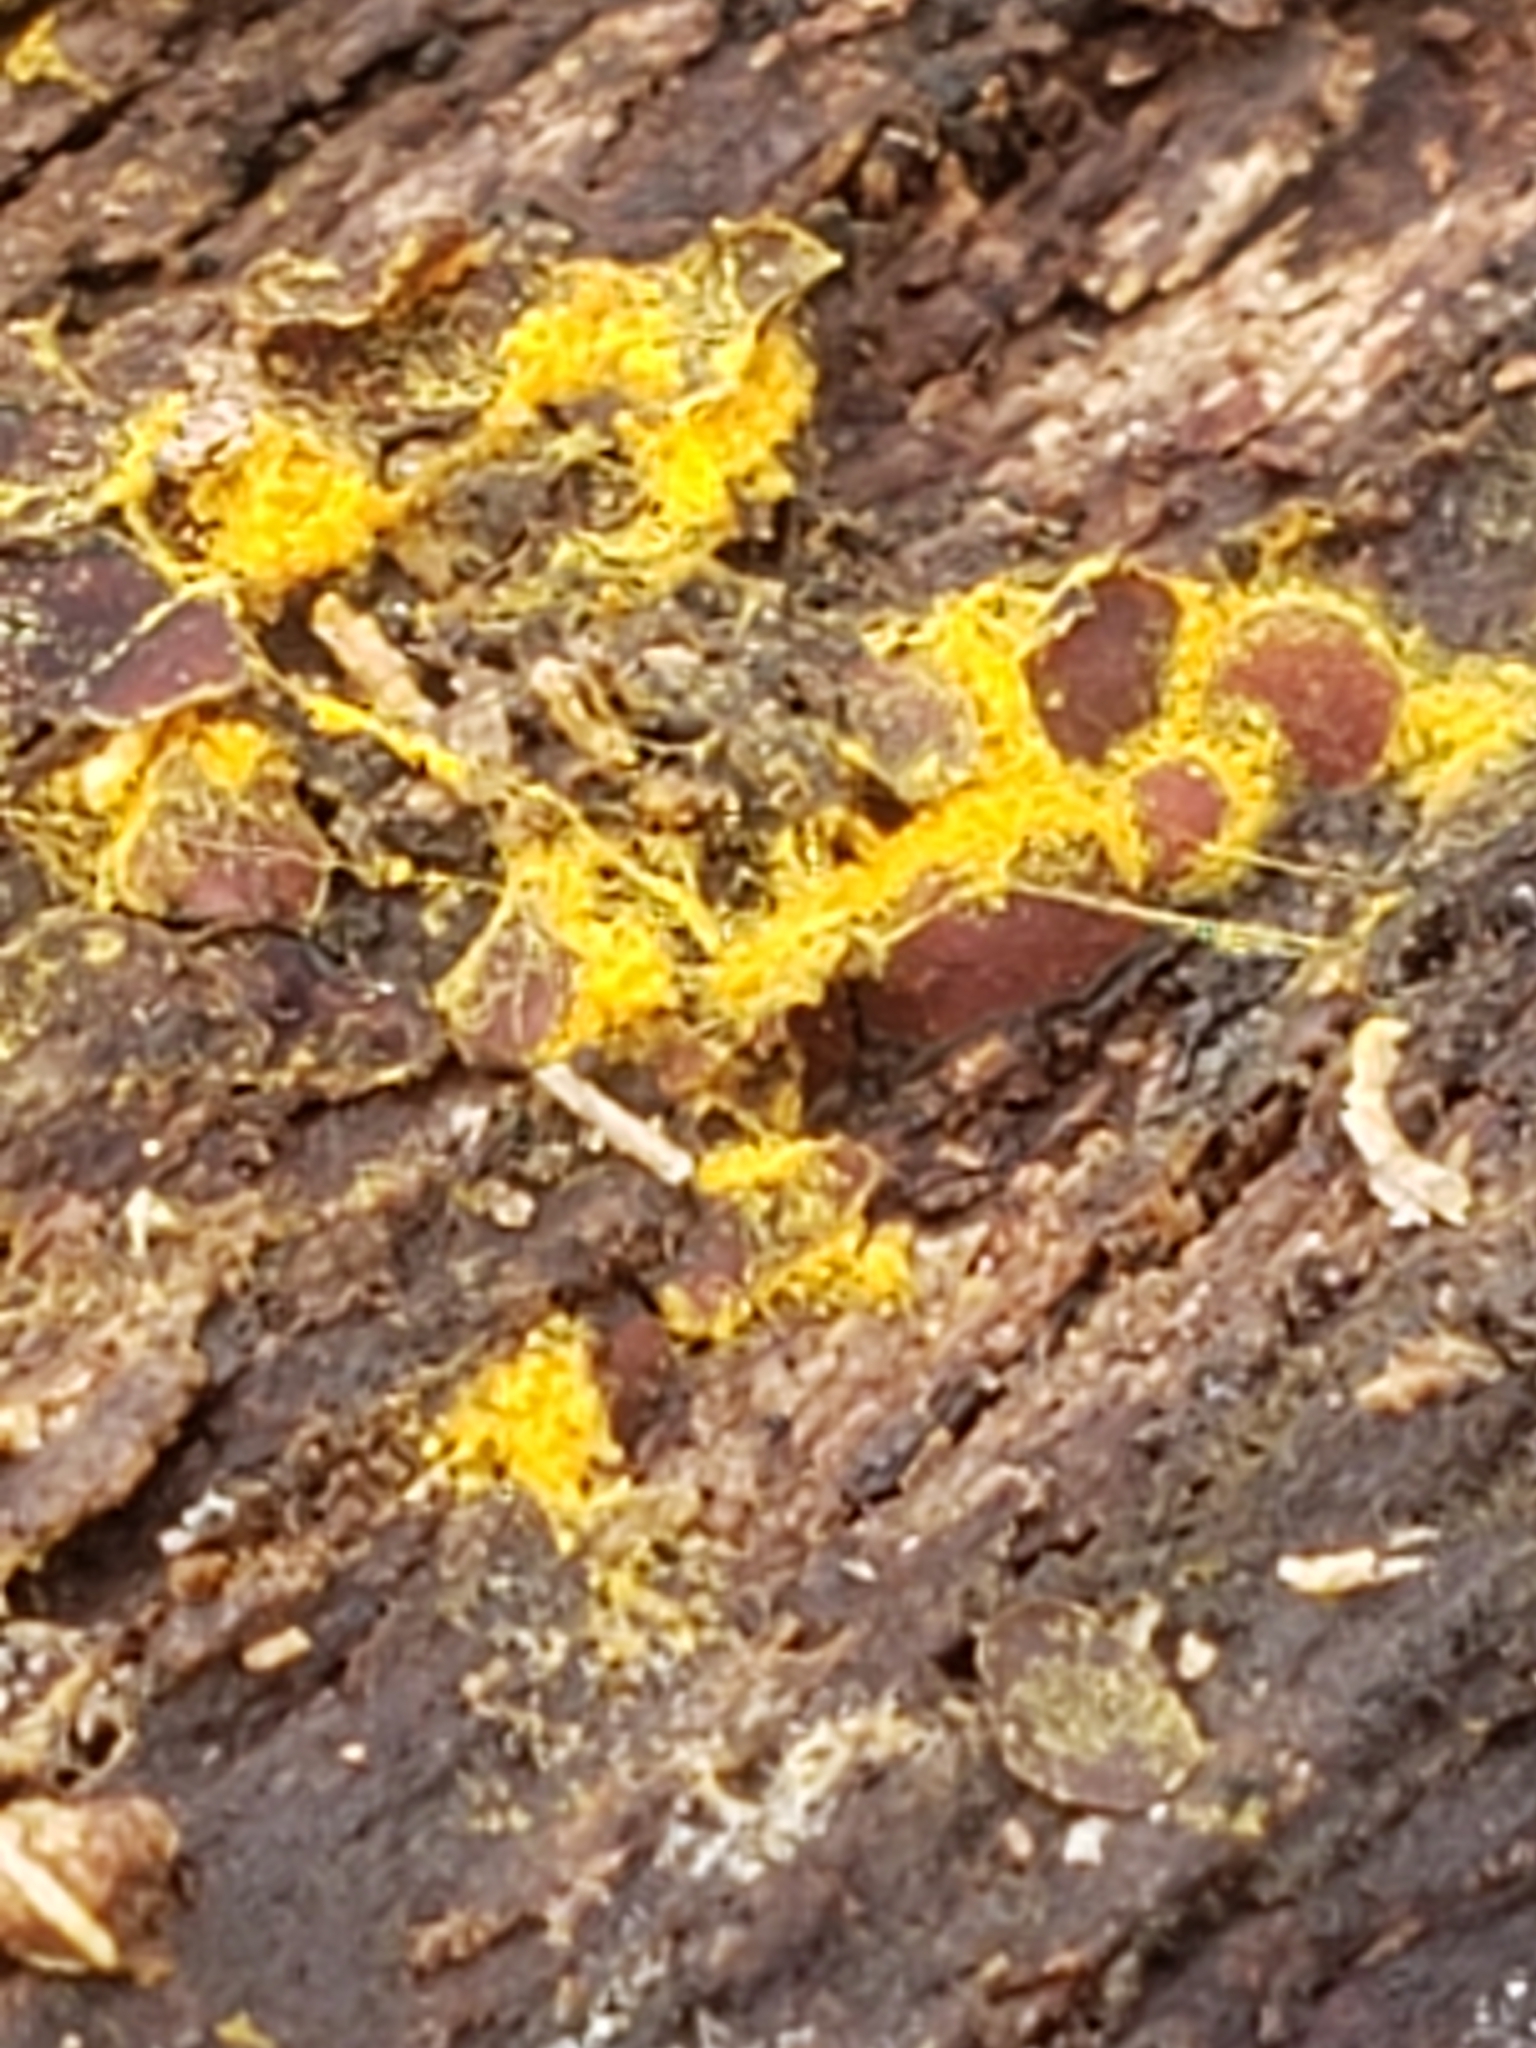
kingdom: Protozoa
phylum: Mycetozoa
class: Myxomycetes
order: Trichiales
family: Trichiaceae
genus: Perichaena
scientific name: Perichaena depressa
